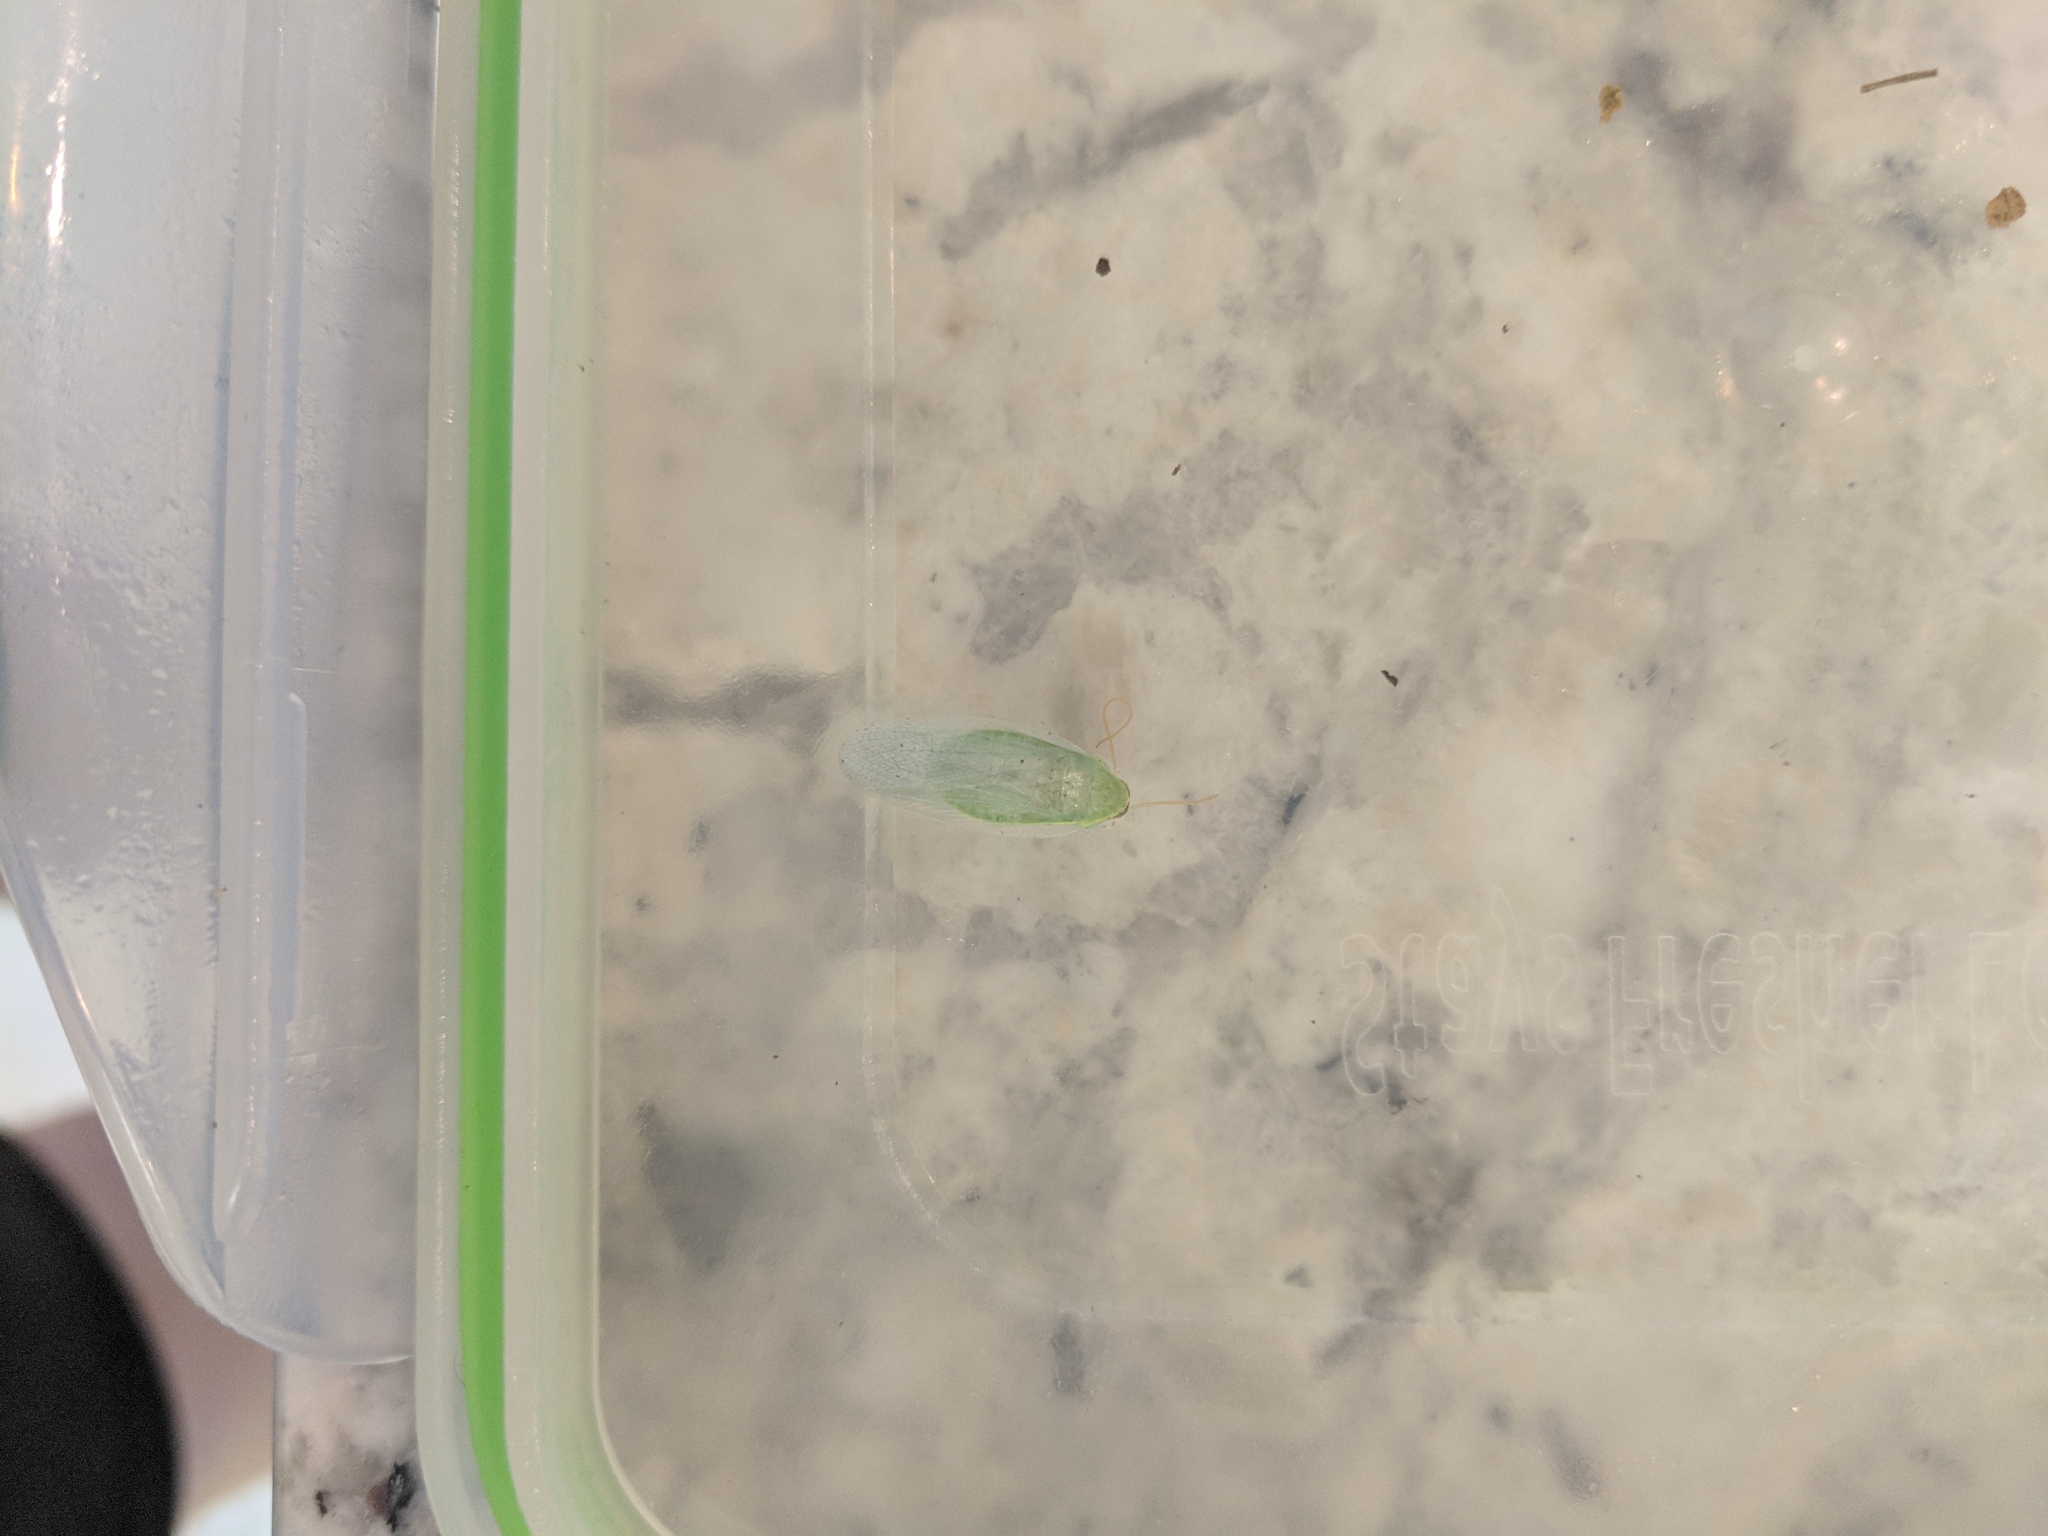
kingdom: Animalia
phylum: Arthropoda
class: Insecta
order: Blattodea
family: Blaberidae
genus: Panchlora
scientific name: Panchlora nivea
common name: Cuban cockroach
